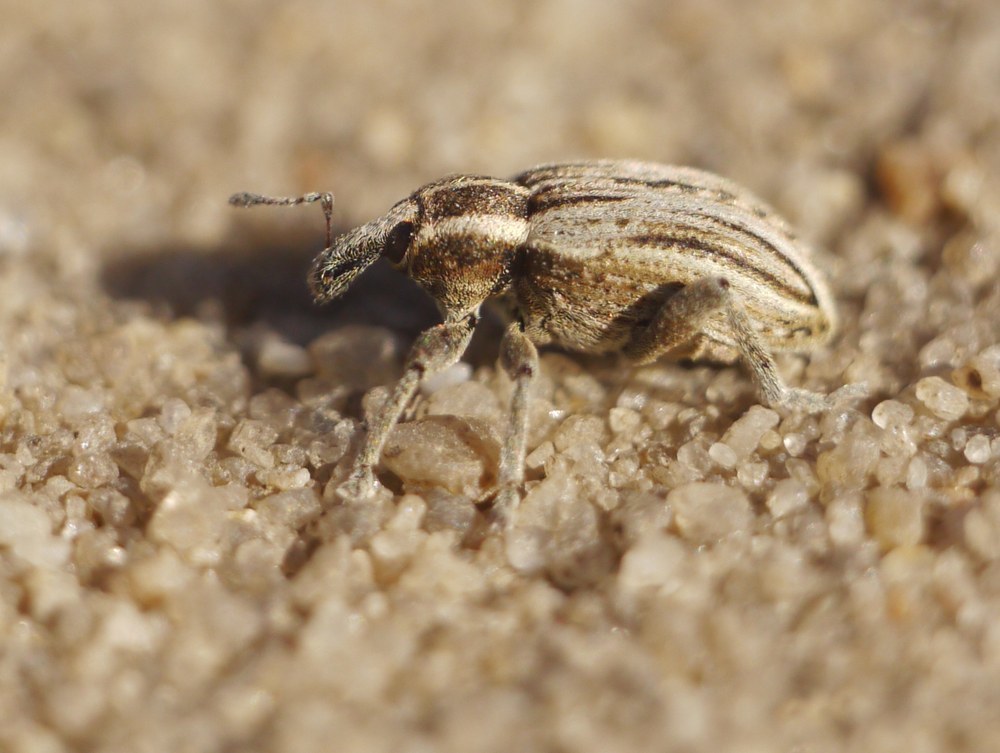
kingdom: Animalia
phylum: Arthropoda
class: Insecta
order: Coleoptera
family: Curculionidae
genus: Hypera
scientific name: Hypera arator
